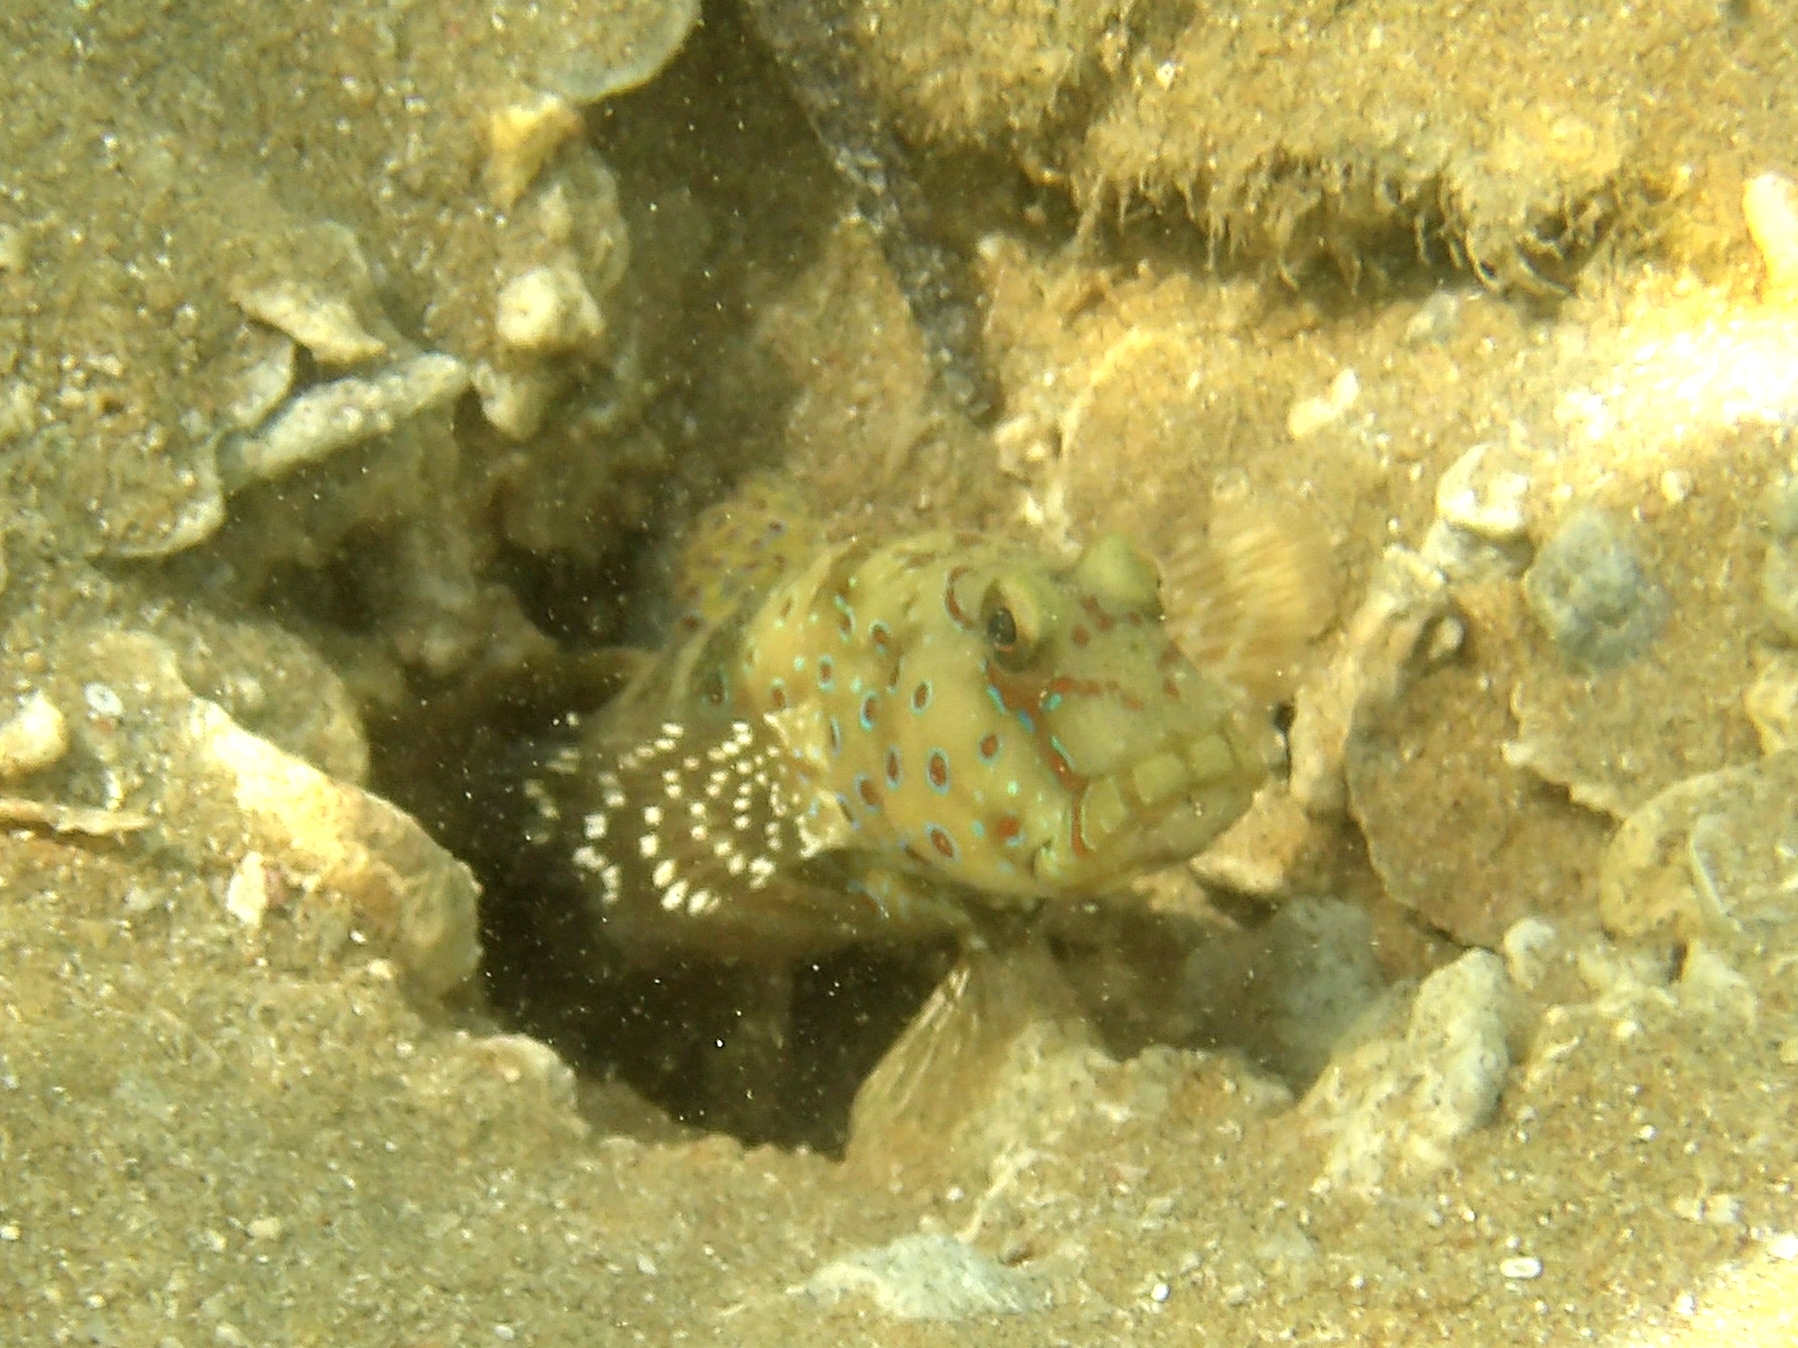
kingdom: Animalia
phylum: Chordata
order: Perciformes
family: Gobiidae
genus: Cryptocentrus
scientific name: Cryptocentrus caeruleopunctatus
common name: Blue-and-red-spotted goby
